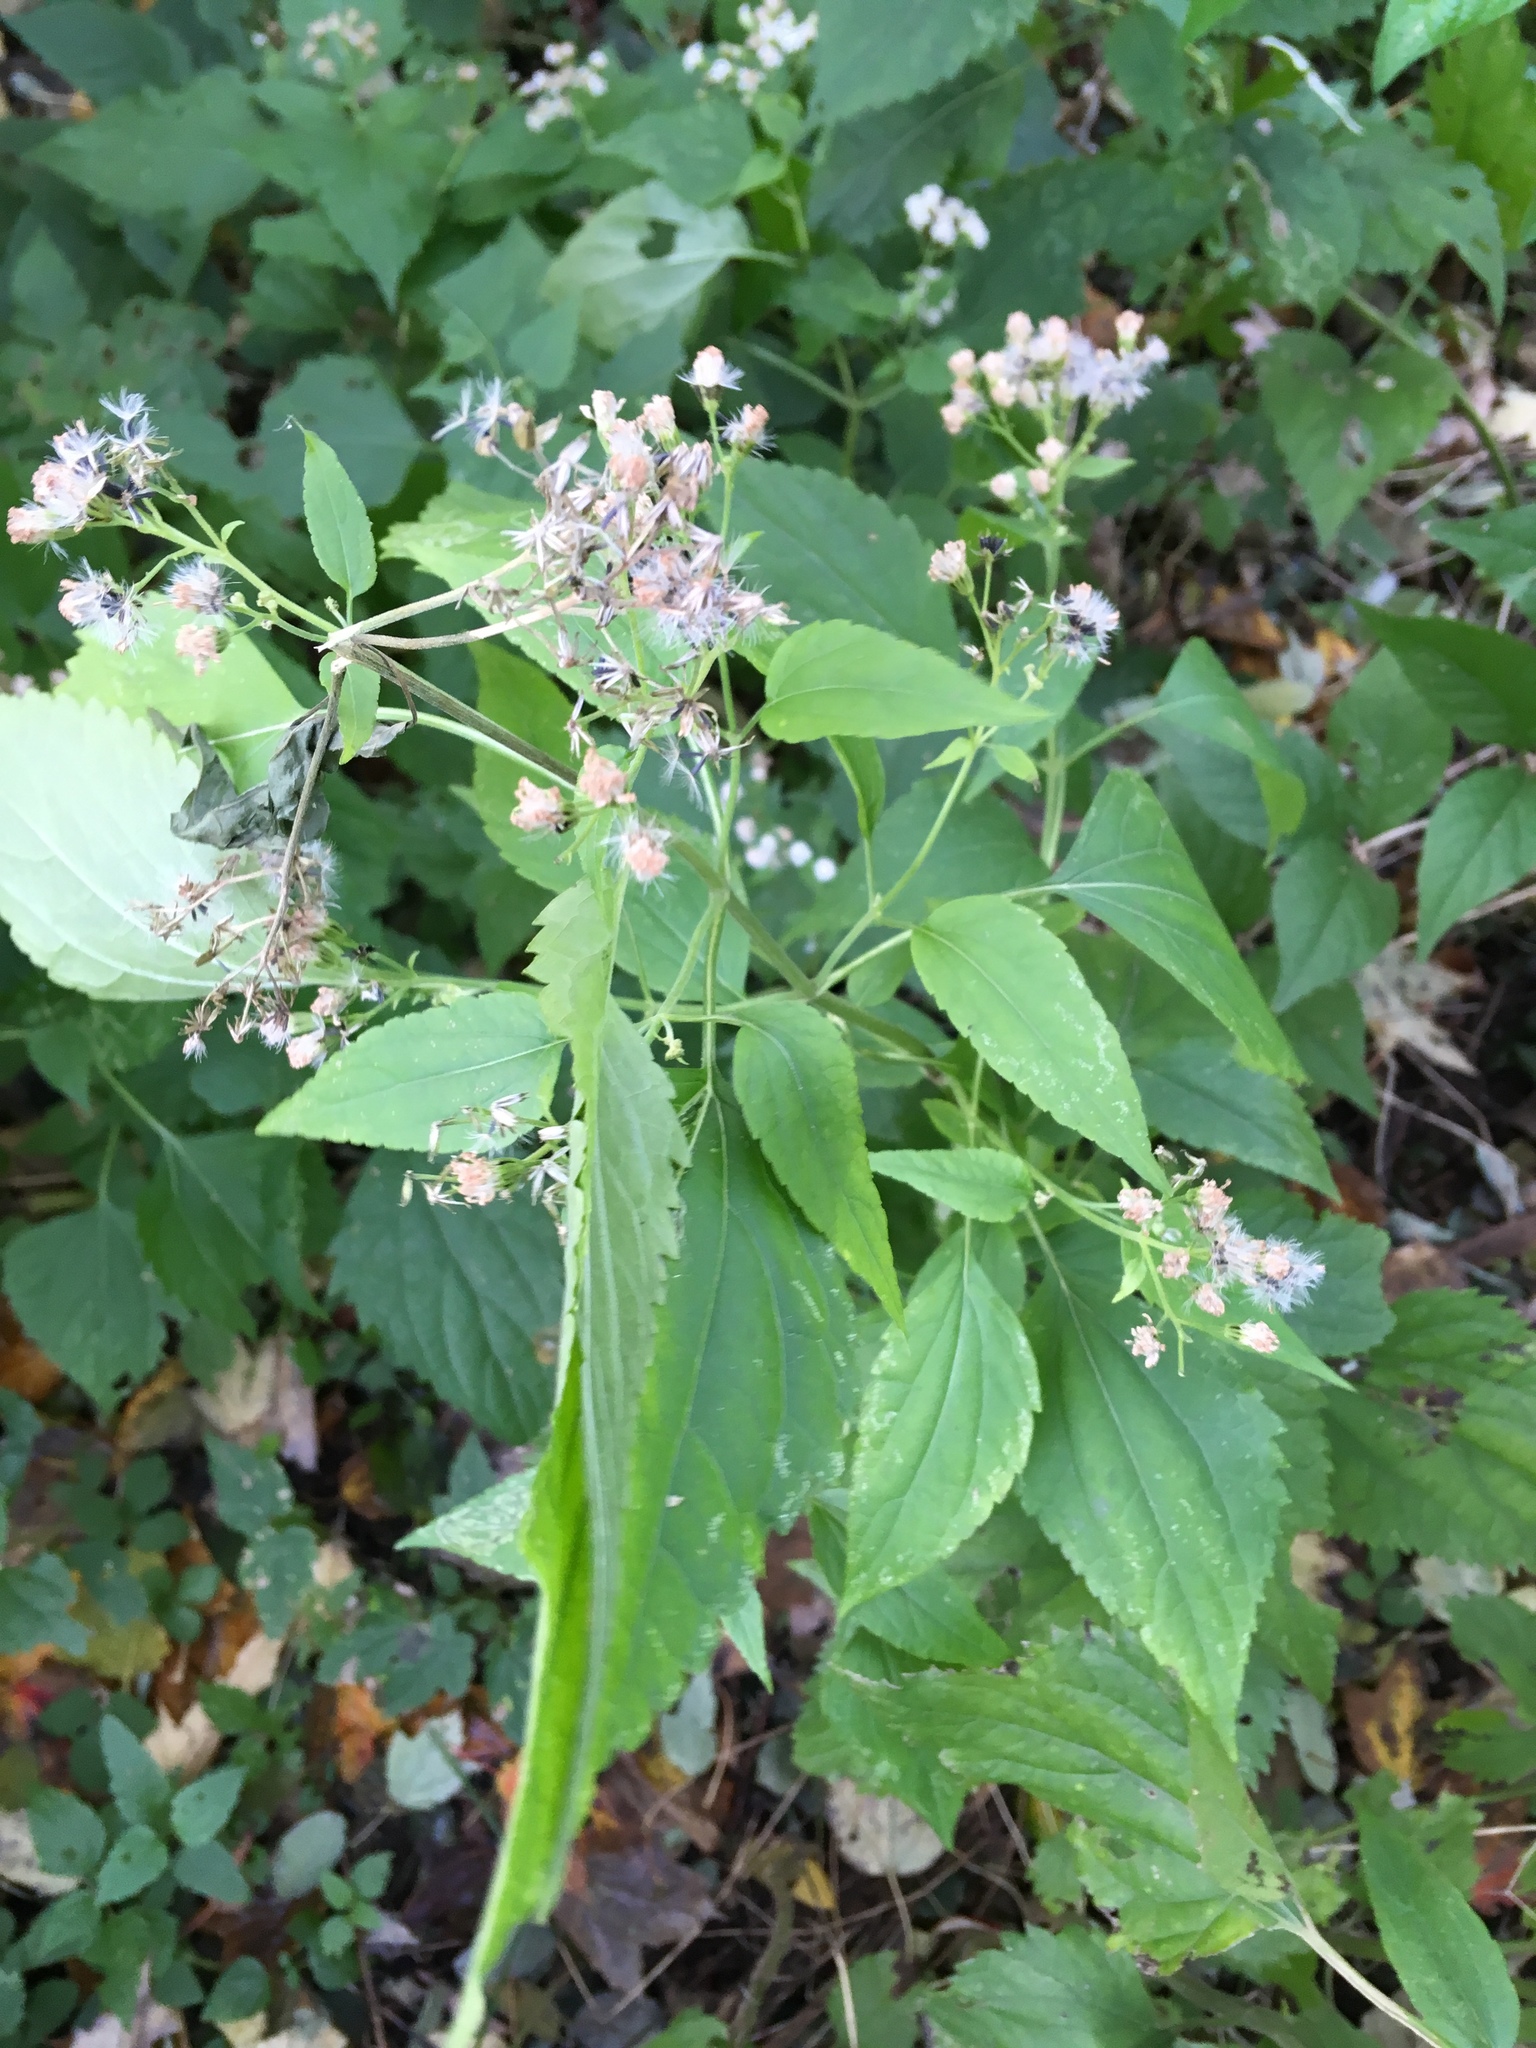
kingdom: Plantae
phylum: Tracheophyta
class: Magnoliopsida
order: Asterales
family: Asteraceae
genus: Ageratina
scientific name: Ageratina altissima
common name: White snakeroot
